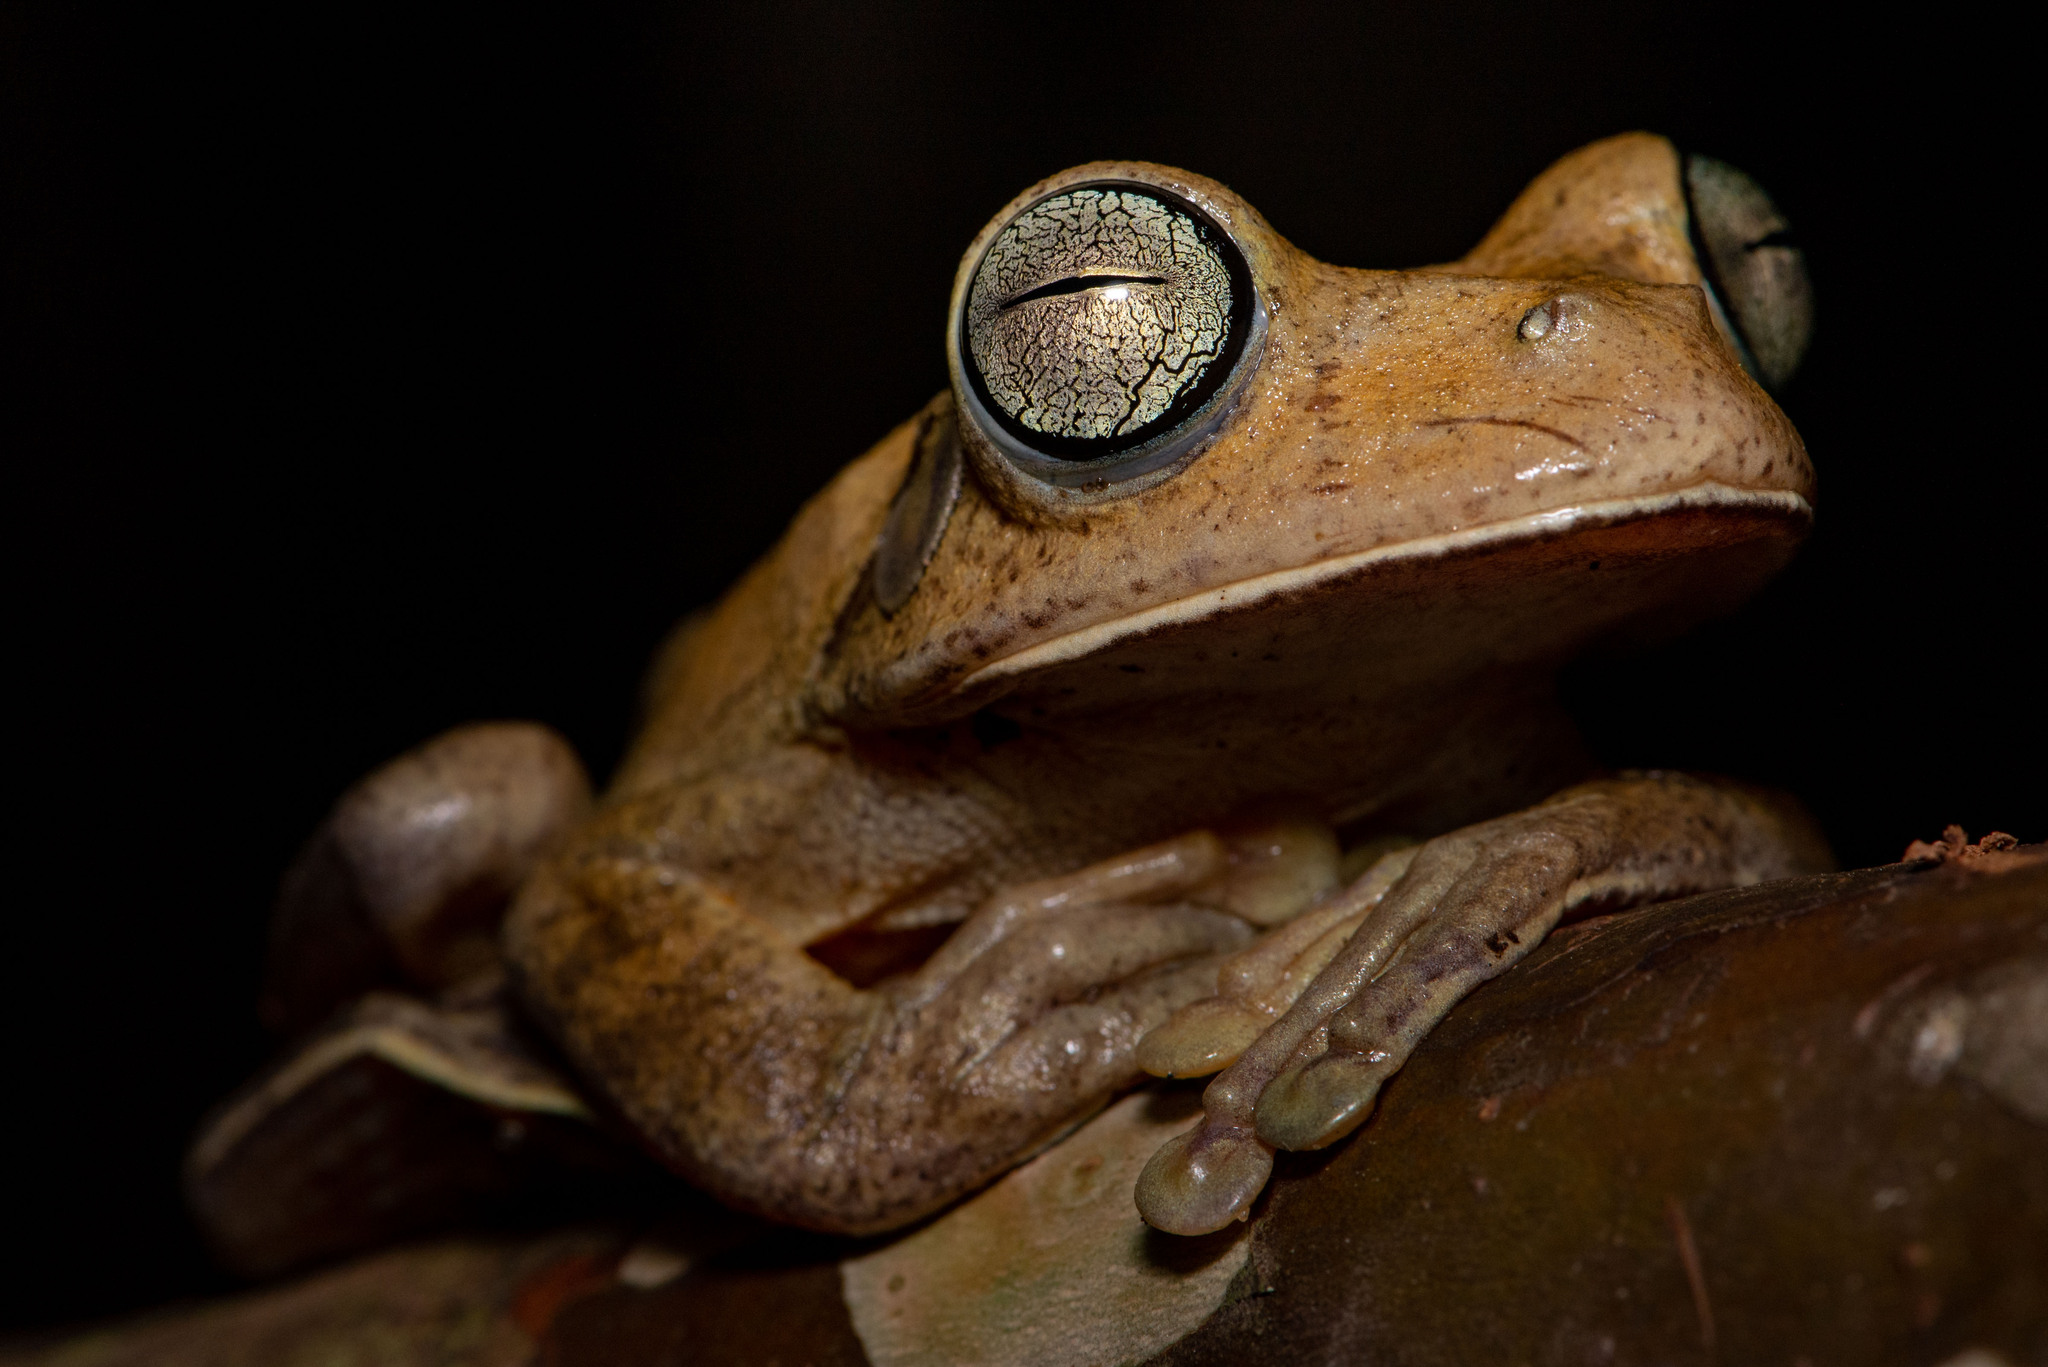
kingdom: Animalia
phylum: Chordata
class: Amphibia
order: Anura
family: Hylidae
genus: Boana
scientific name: Boana faber
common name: Blacksmith tree frog
